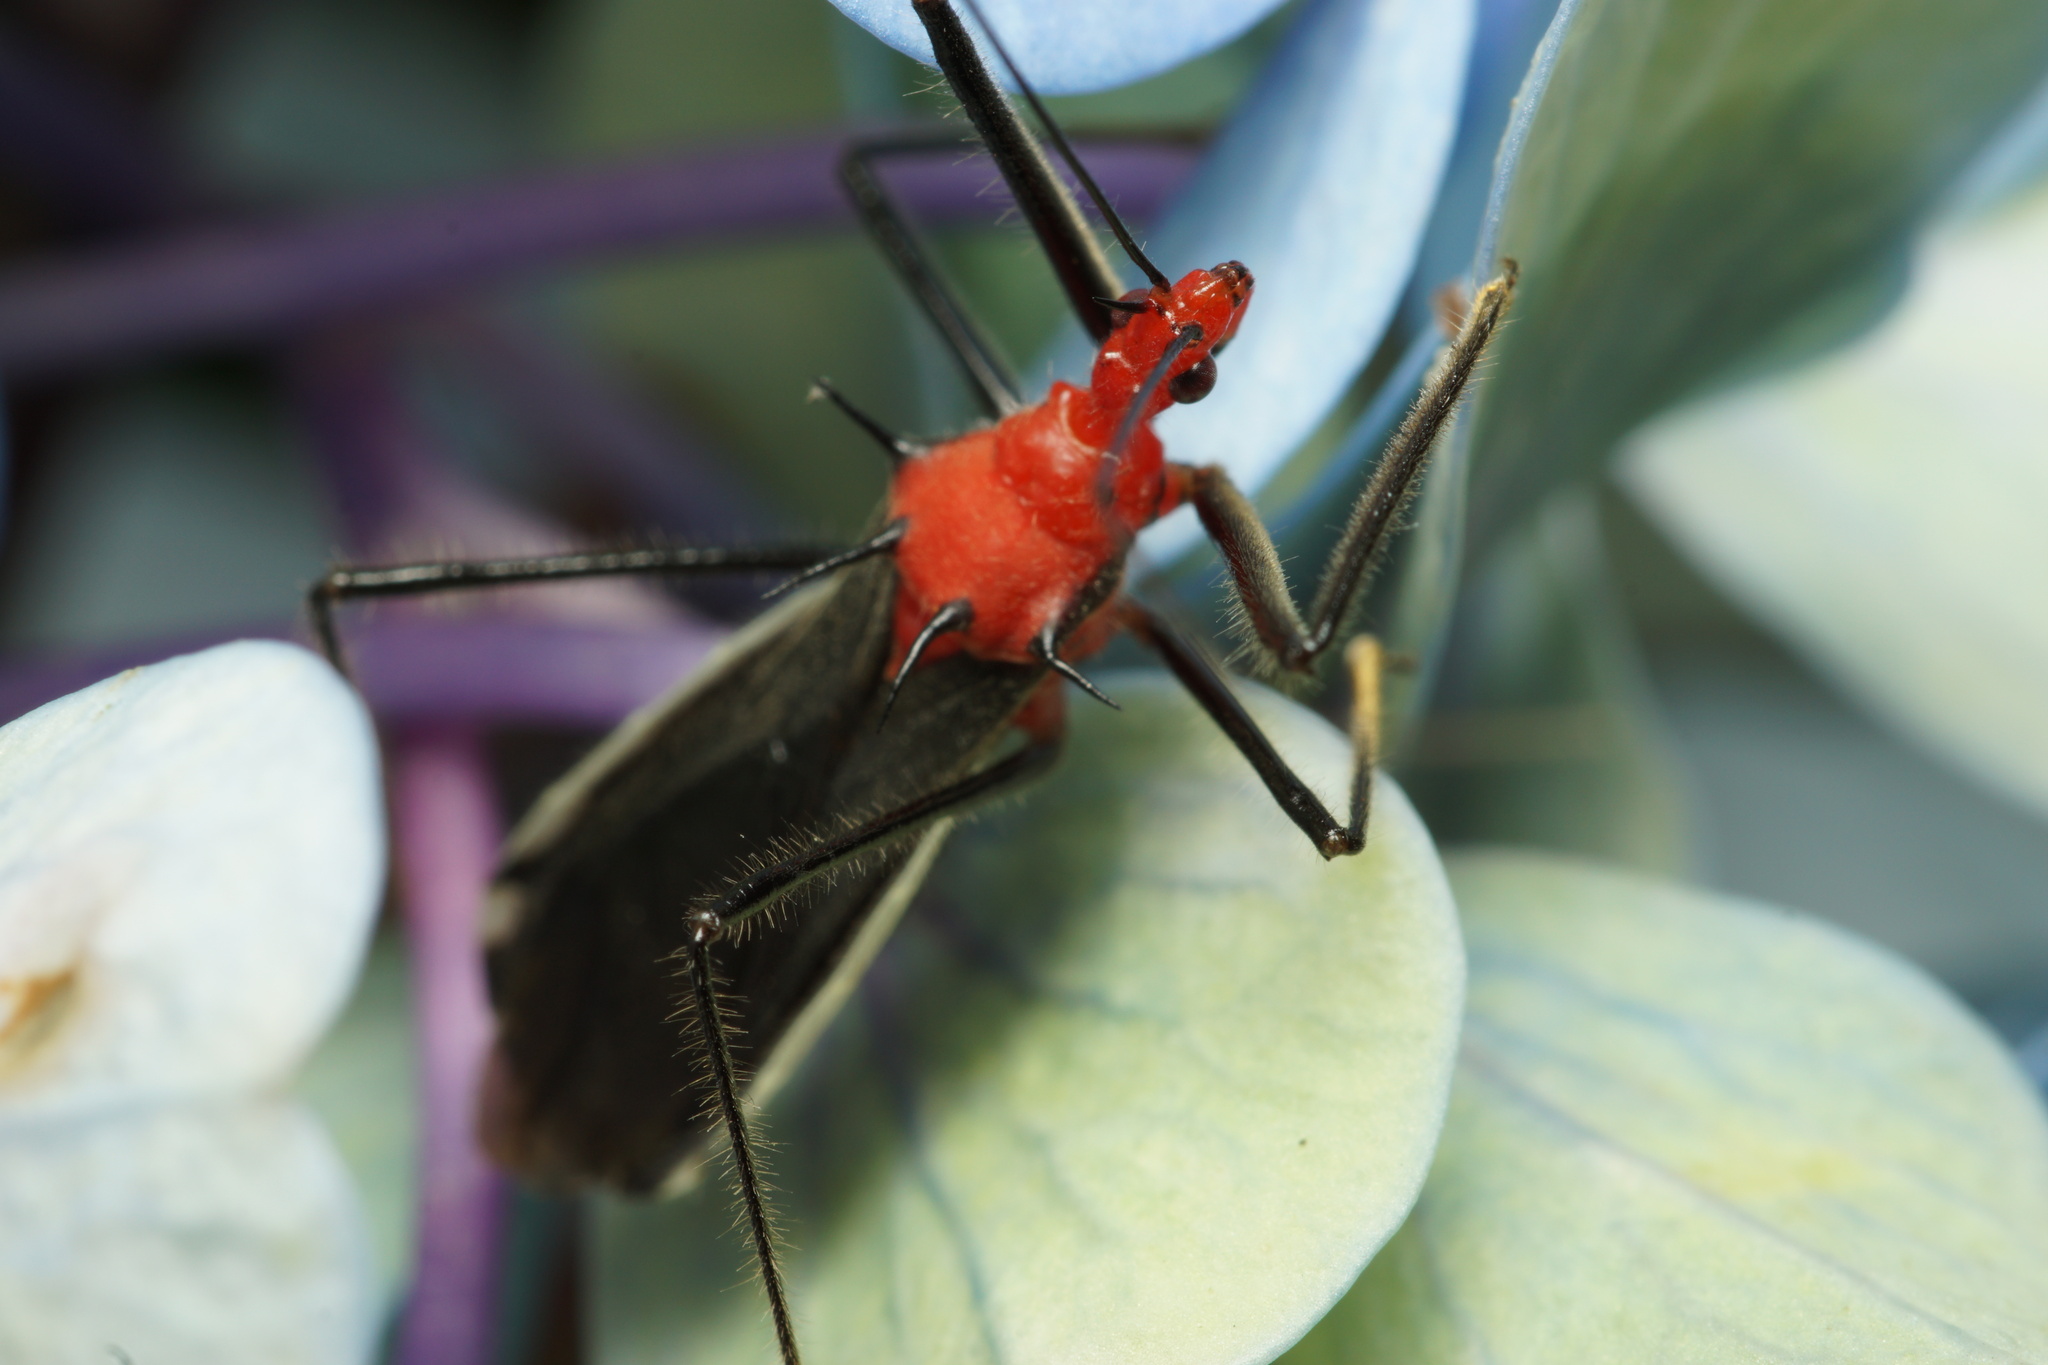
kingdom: Animalia
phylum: Arthropoda
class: Insecta
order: Hemiptera
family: Reduviidae
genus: Repipta
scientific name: Repipta fuscospinosa
